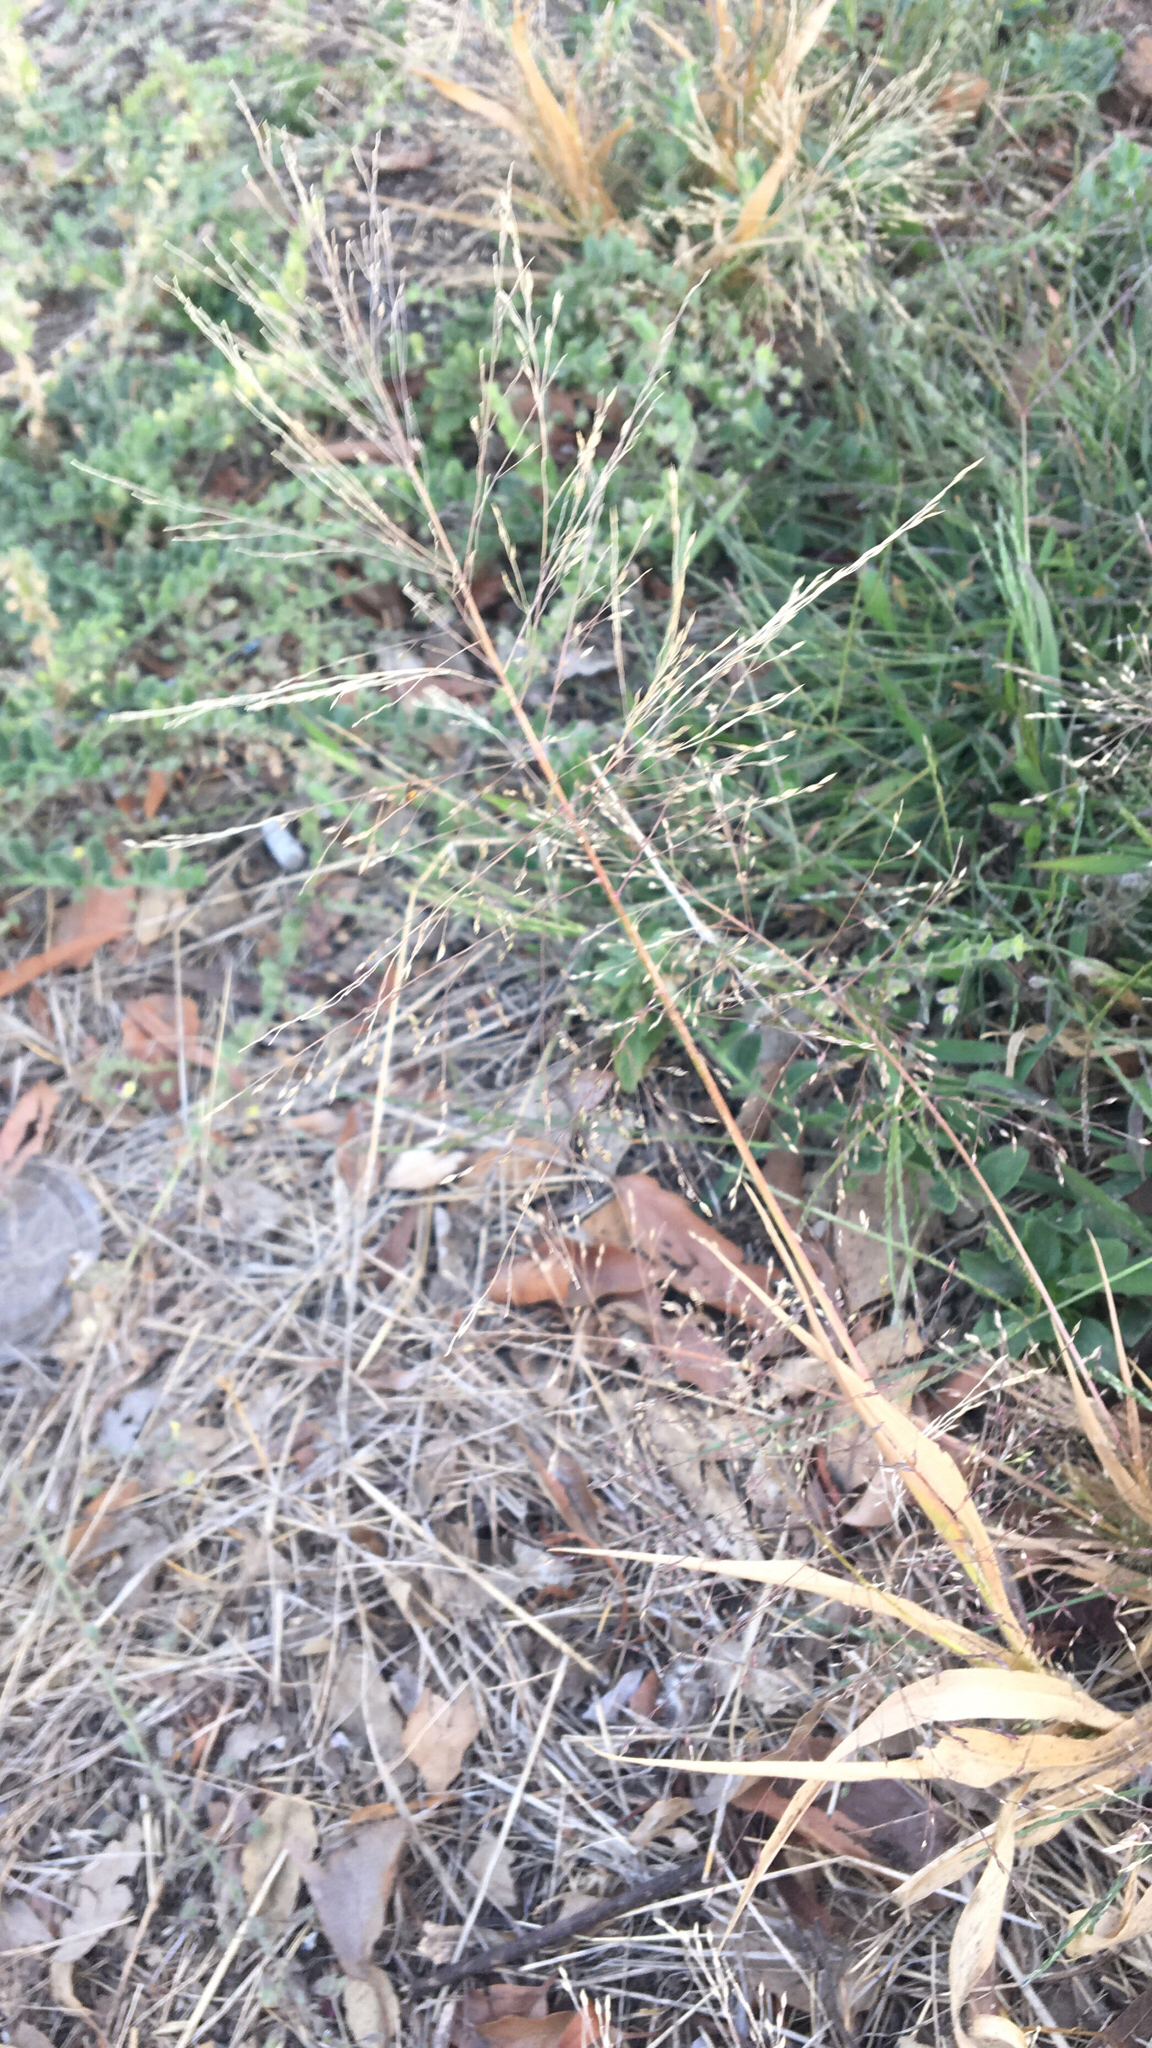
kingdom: Plantae
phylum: Tracheophyta
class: Liliopsida
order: Poales
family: Poaceae
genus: Panicum
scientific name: Panicum capillare
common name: Witch-grass
